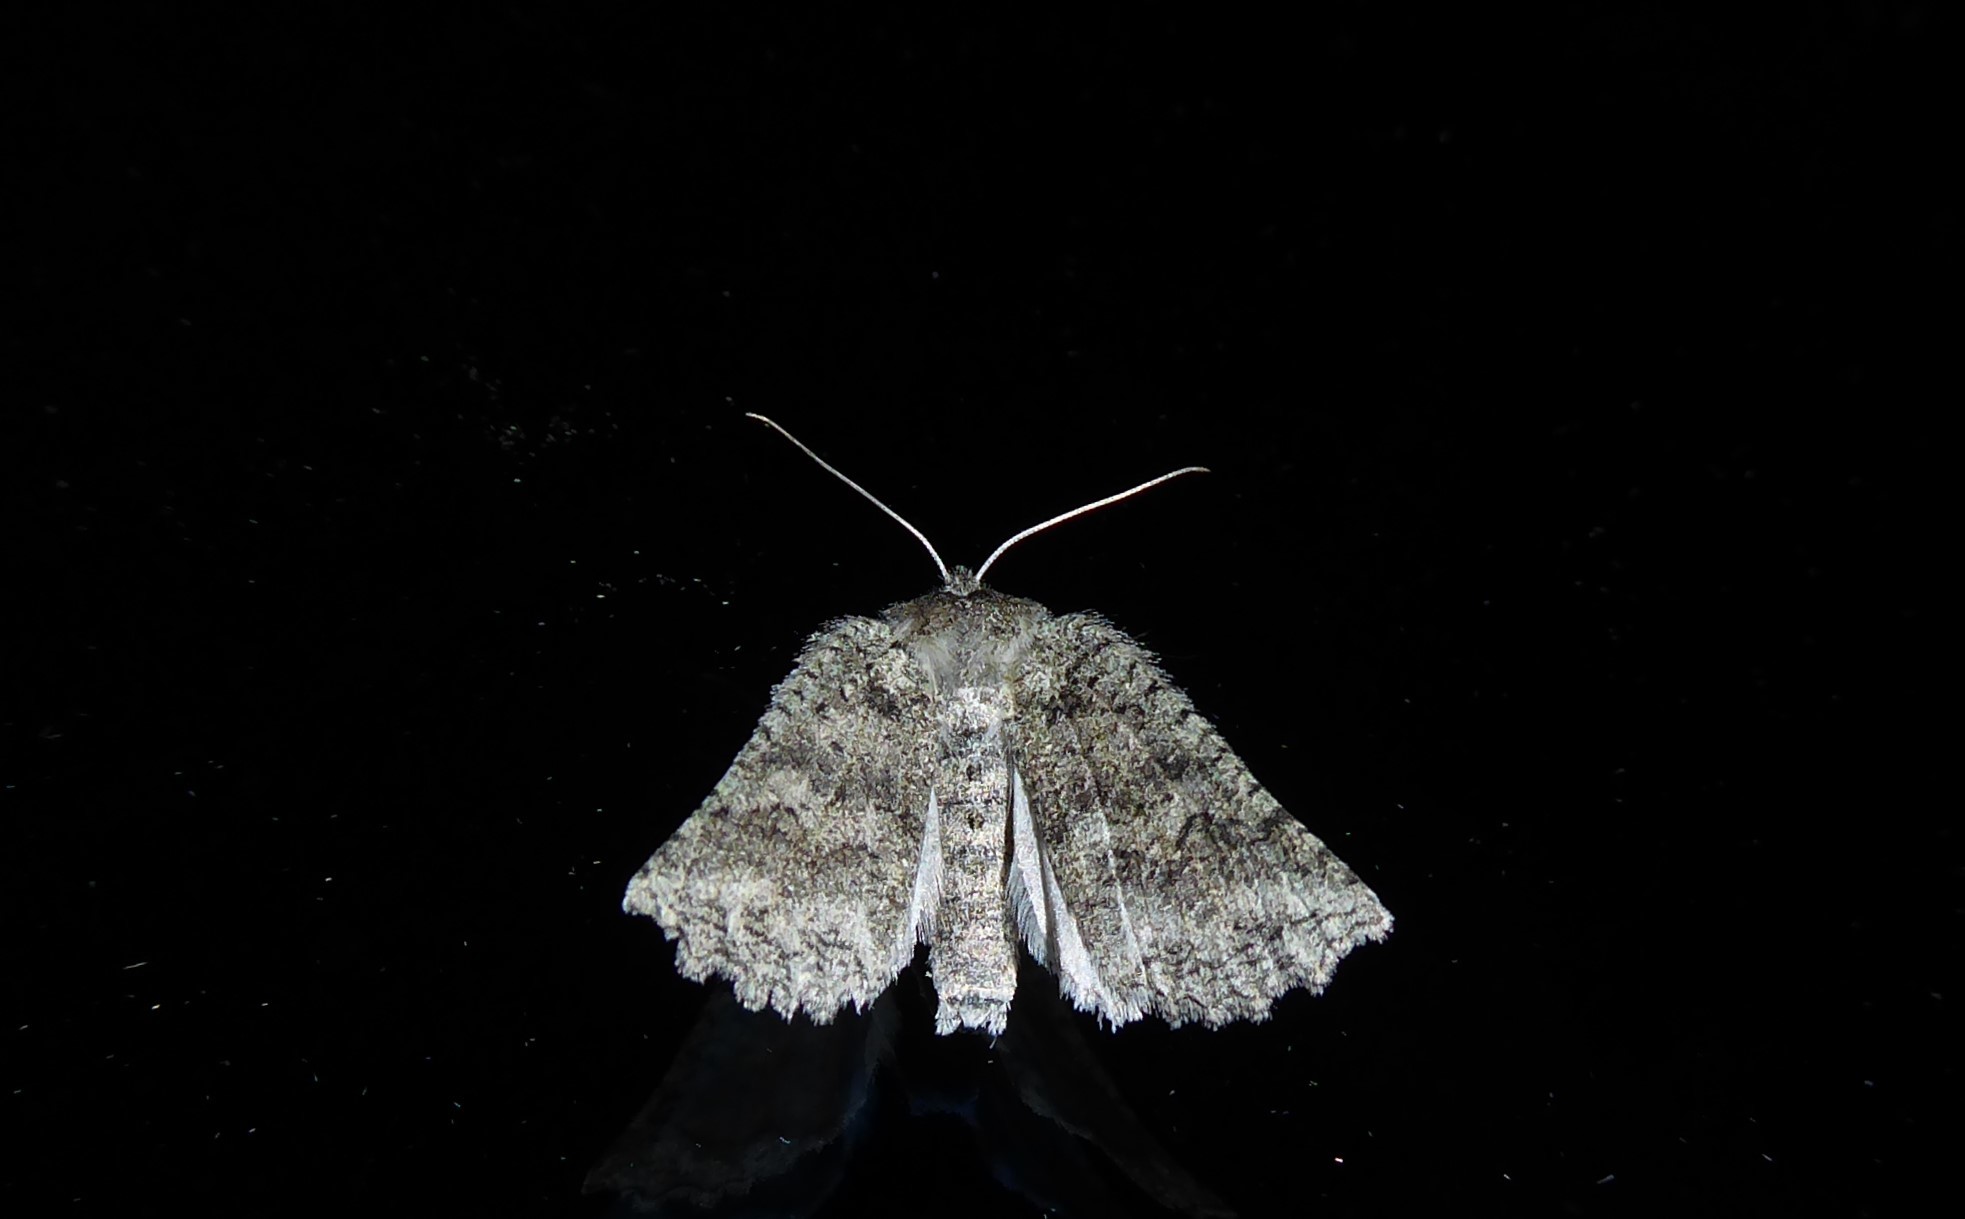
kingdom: Animalia
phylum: Arthropoda
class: Insecta
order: Lepidoptera
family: Geometridae
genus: Declana
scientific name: Declana niveata
